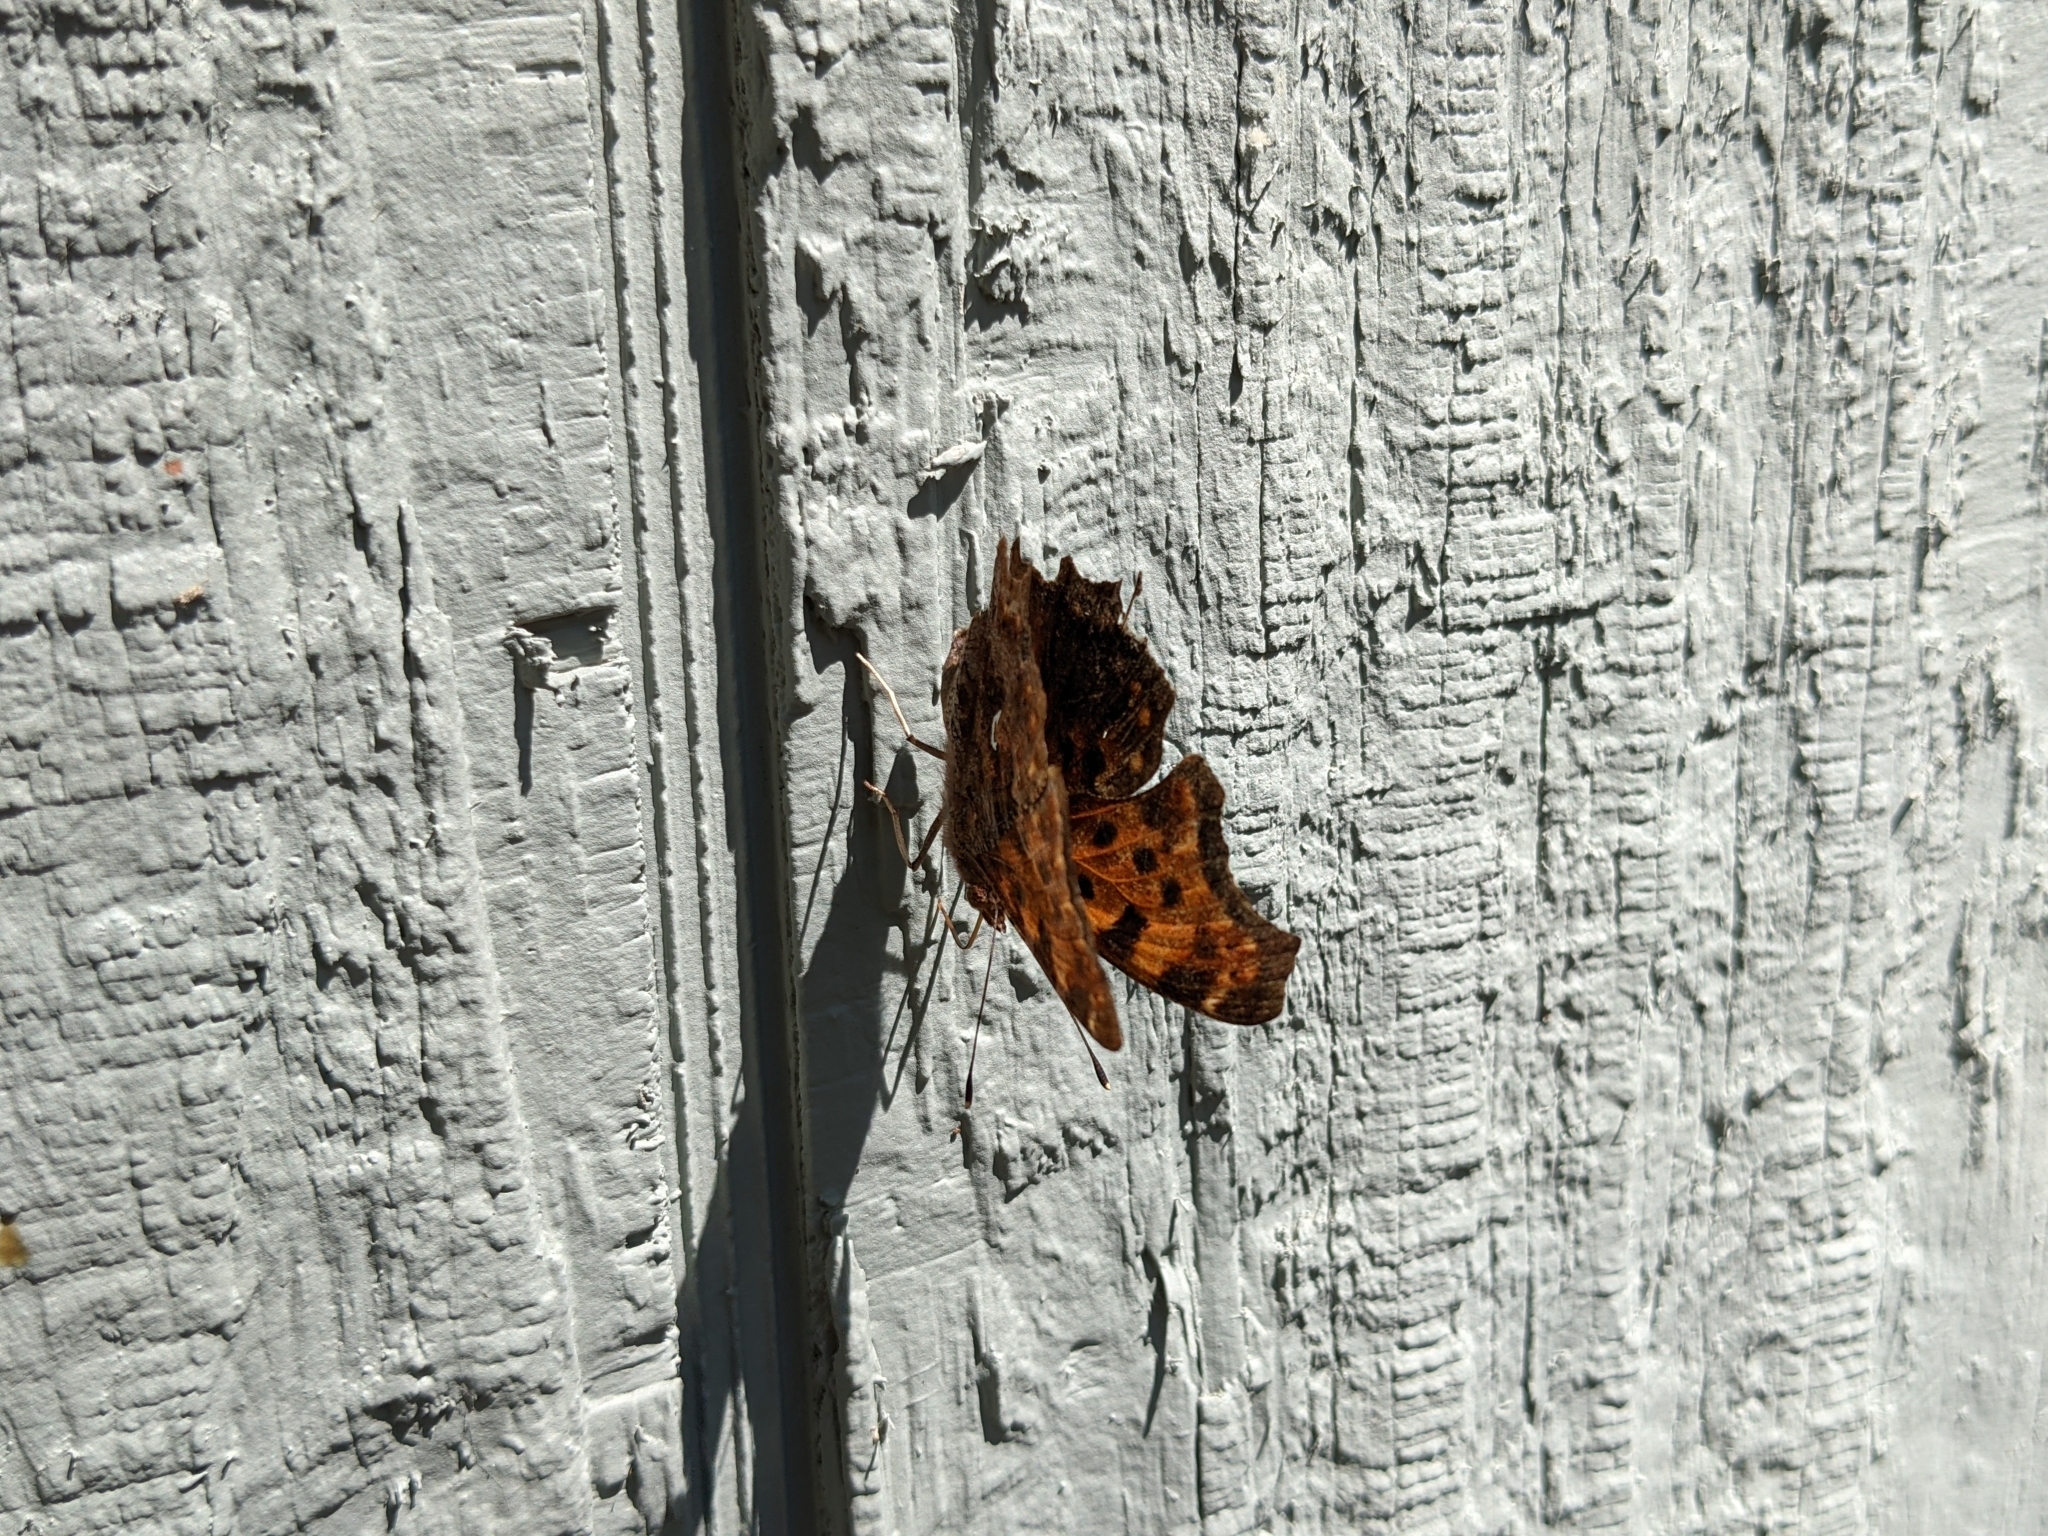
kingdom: Animalia
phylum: Arthropoda
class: Insecta
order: Lepidoptera
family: Nymphalidae
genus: Polygonia
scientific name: Polygonia comma
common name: Eastern comma
